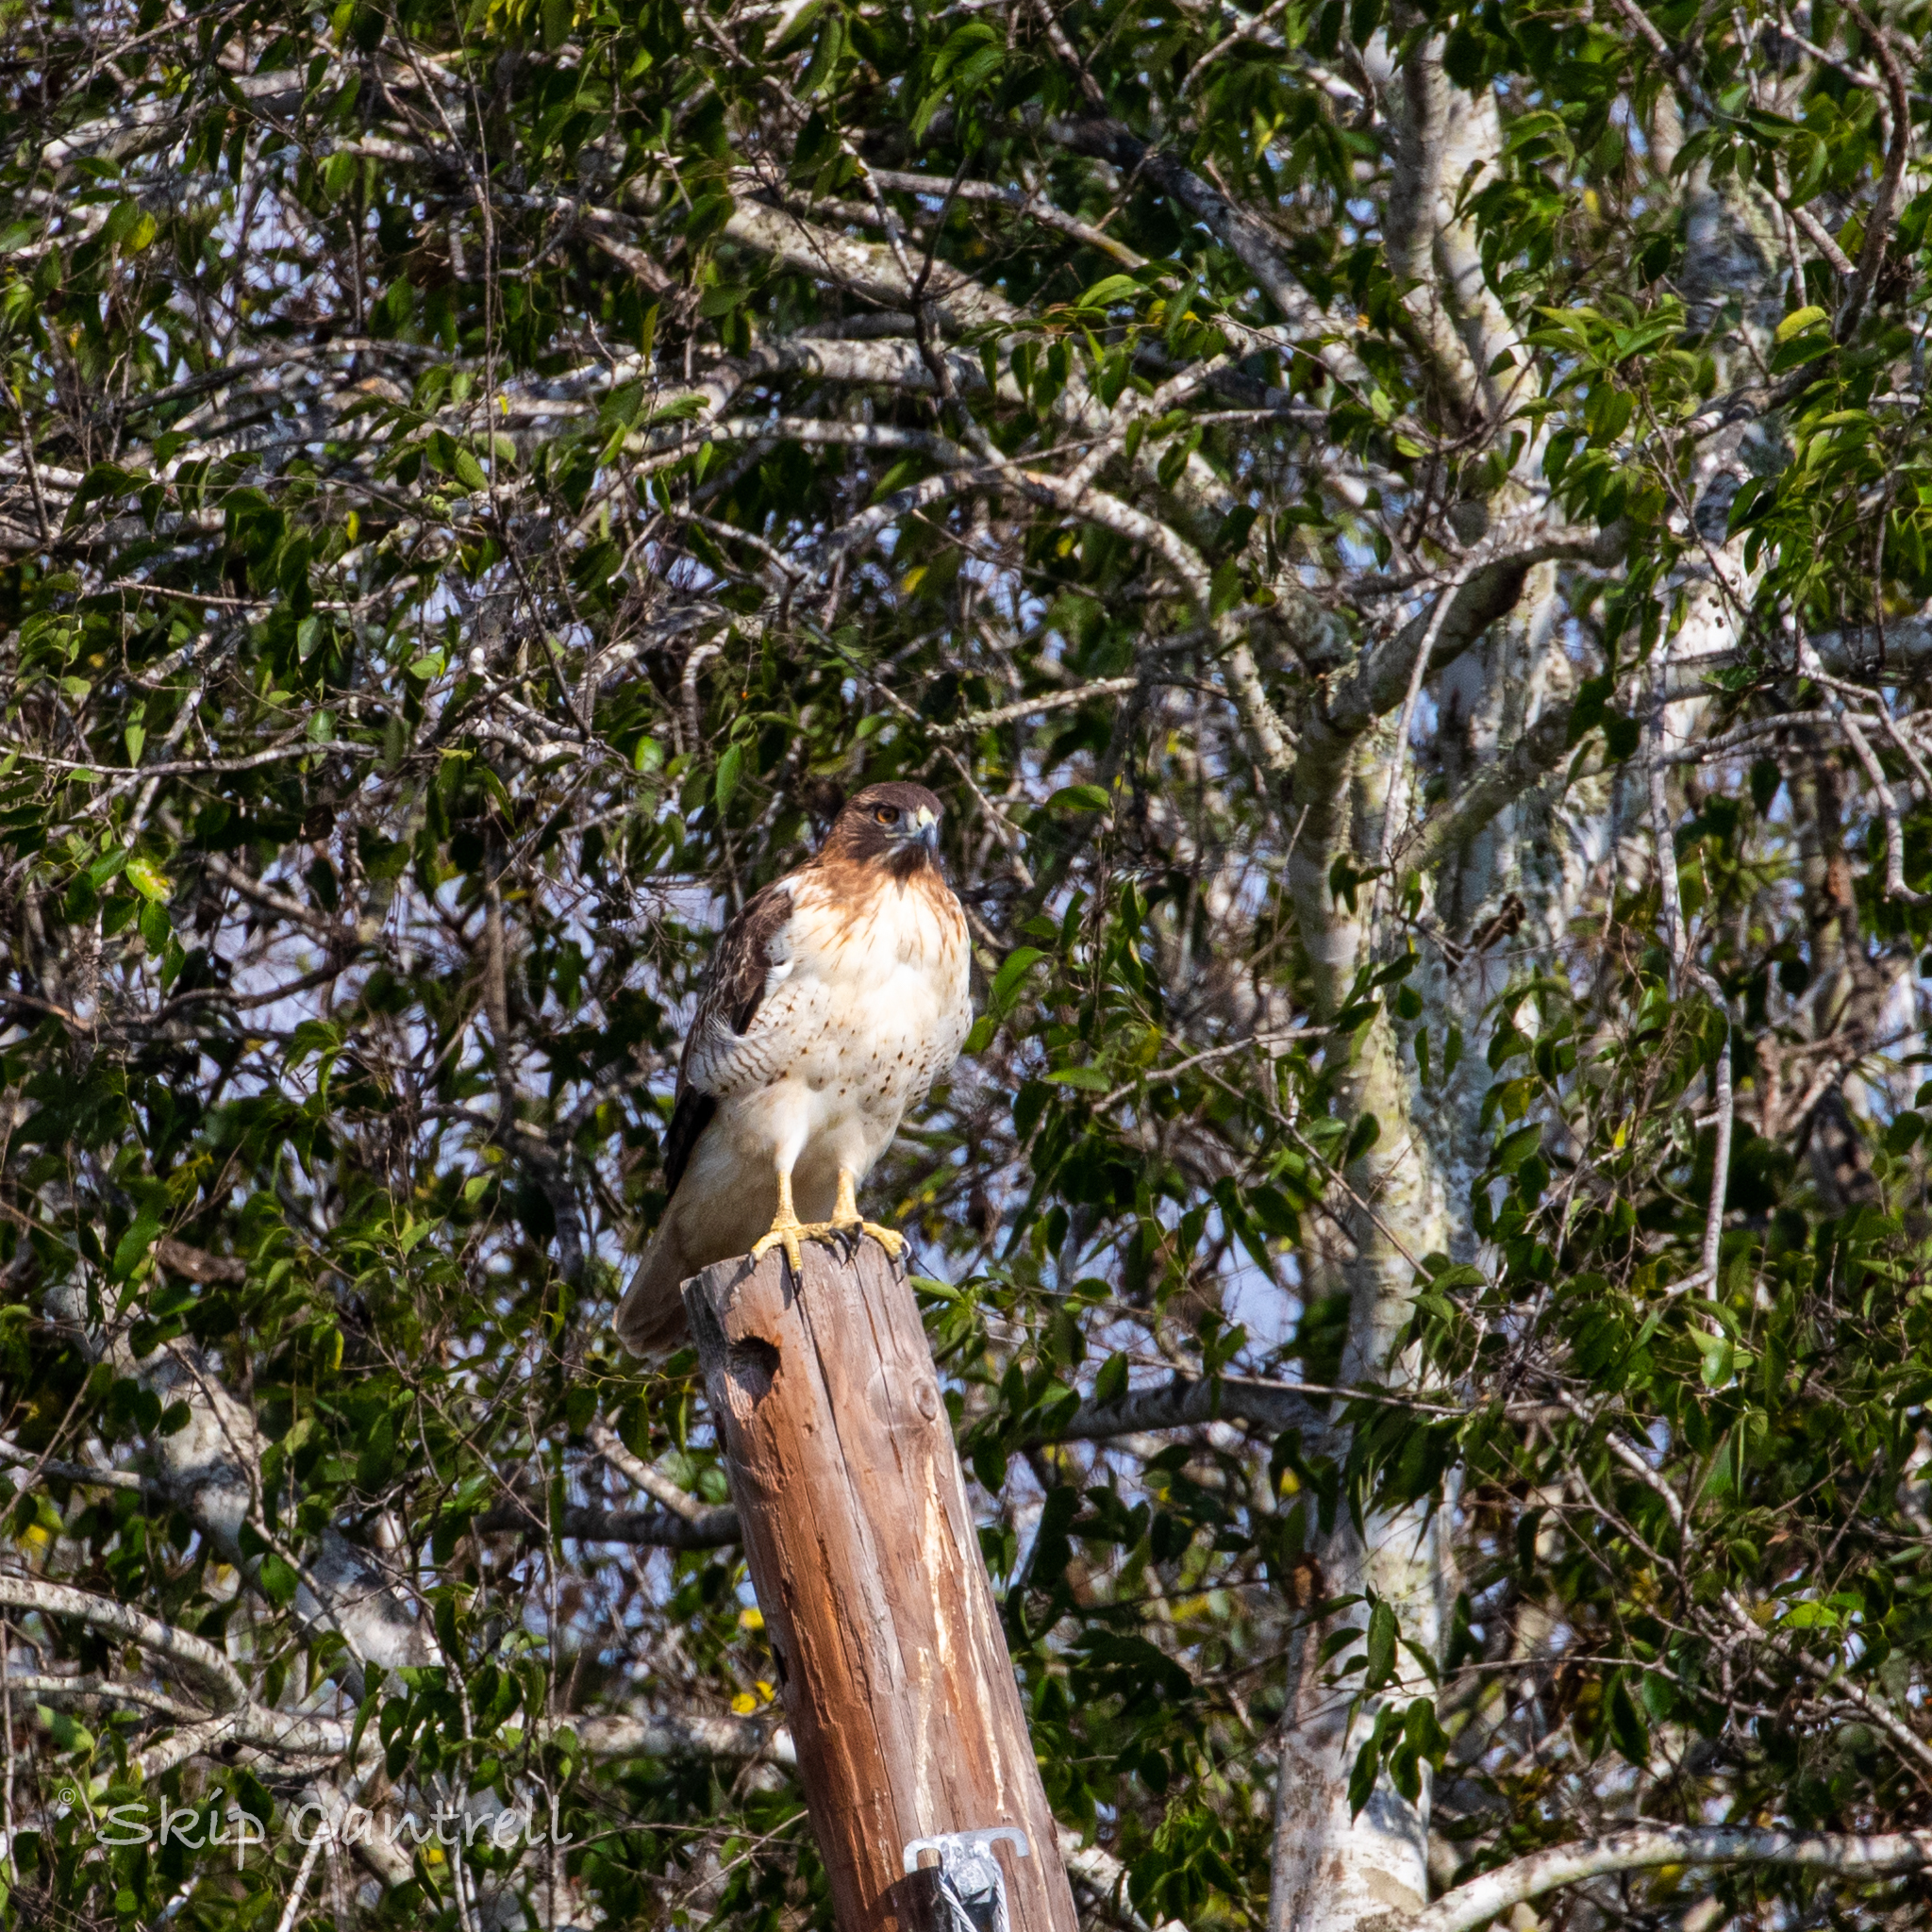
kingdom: Animalia
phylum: Chordata
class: Aves
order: Accipitriformes
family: Accipitridae
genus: Buteo
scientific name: Buteo jamaicensis
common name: Red-tailed hawk
